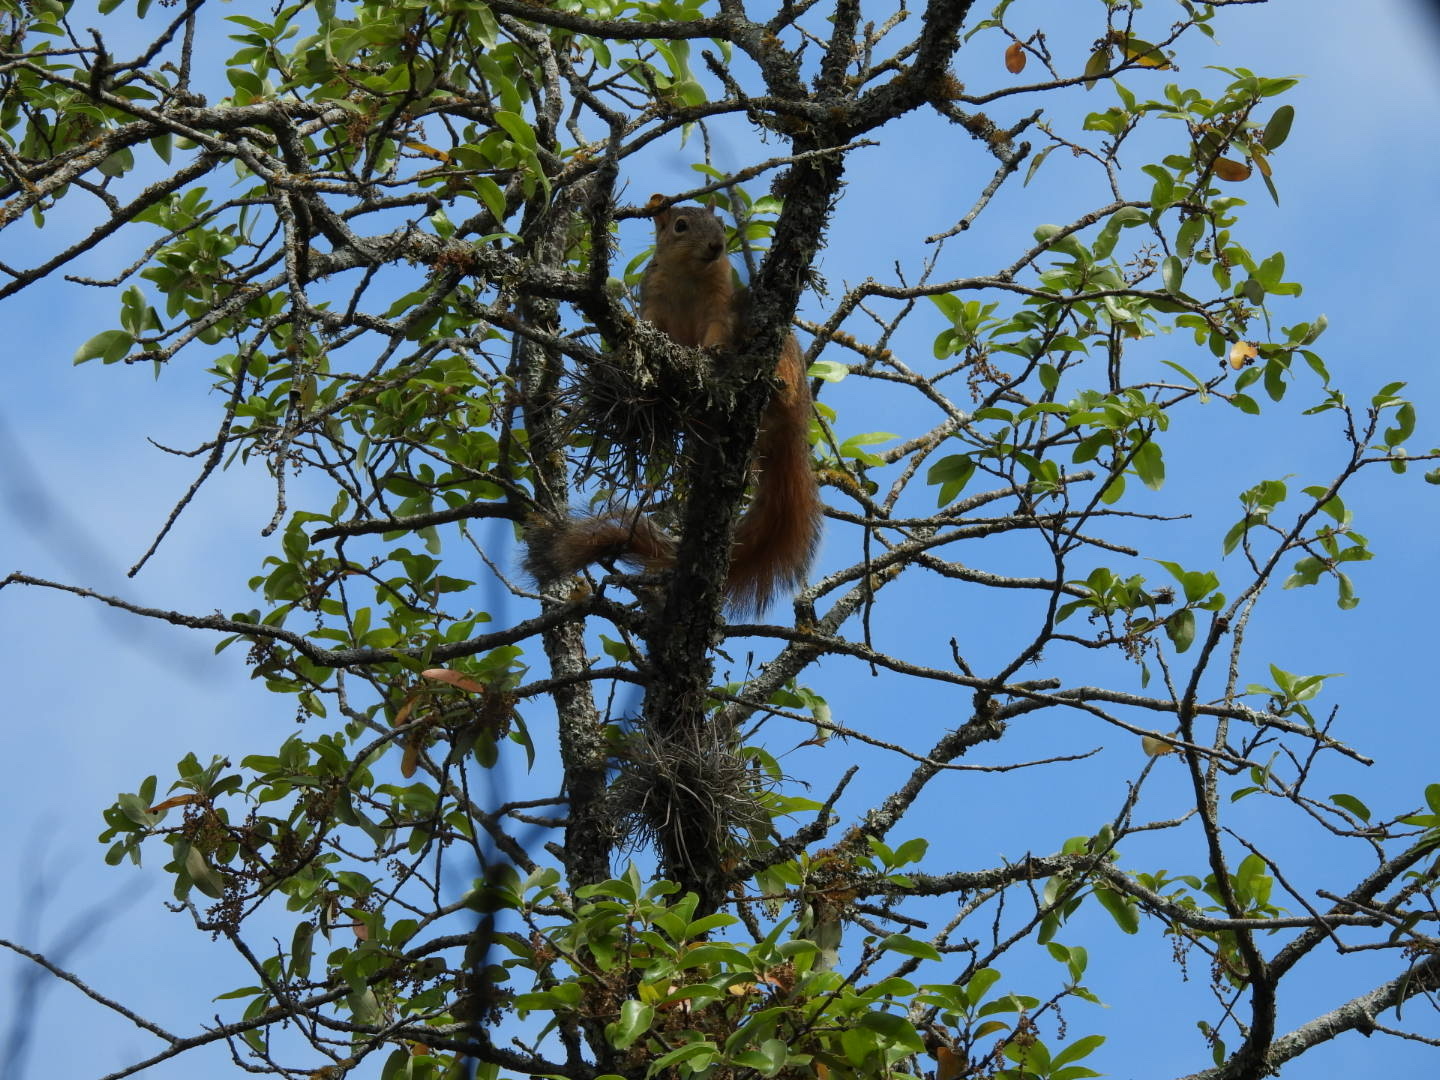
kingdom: Animalia
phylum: Chordata
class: Mammalia
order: Rodentia
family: Sciuridae
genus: Sciurus
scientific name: Sciurus niger
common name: Fox squirrel
